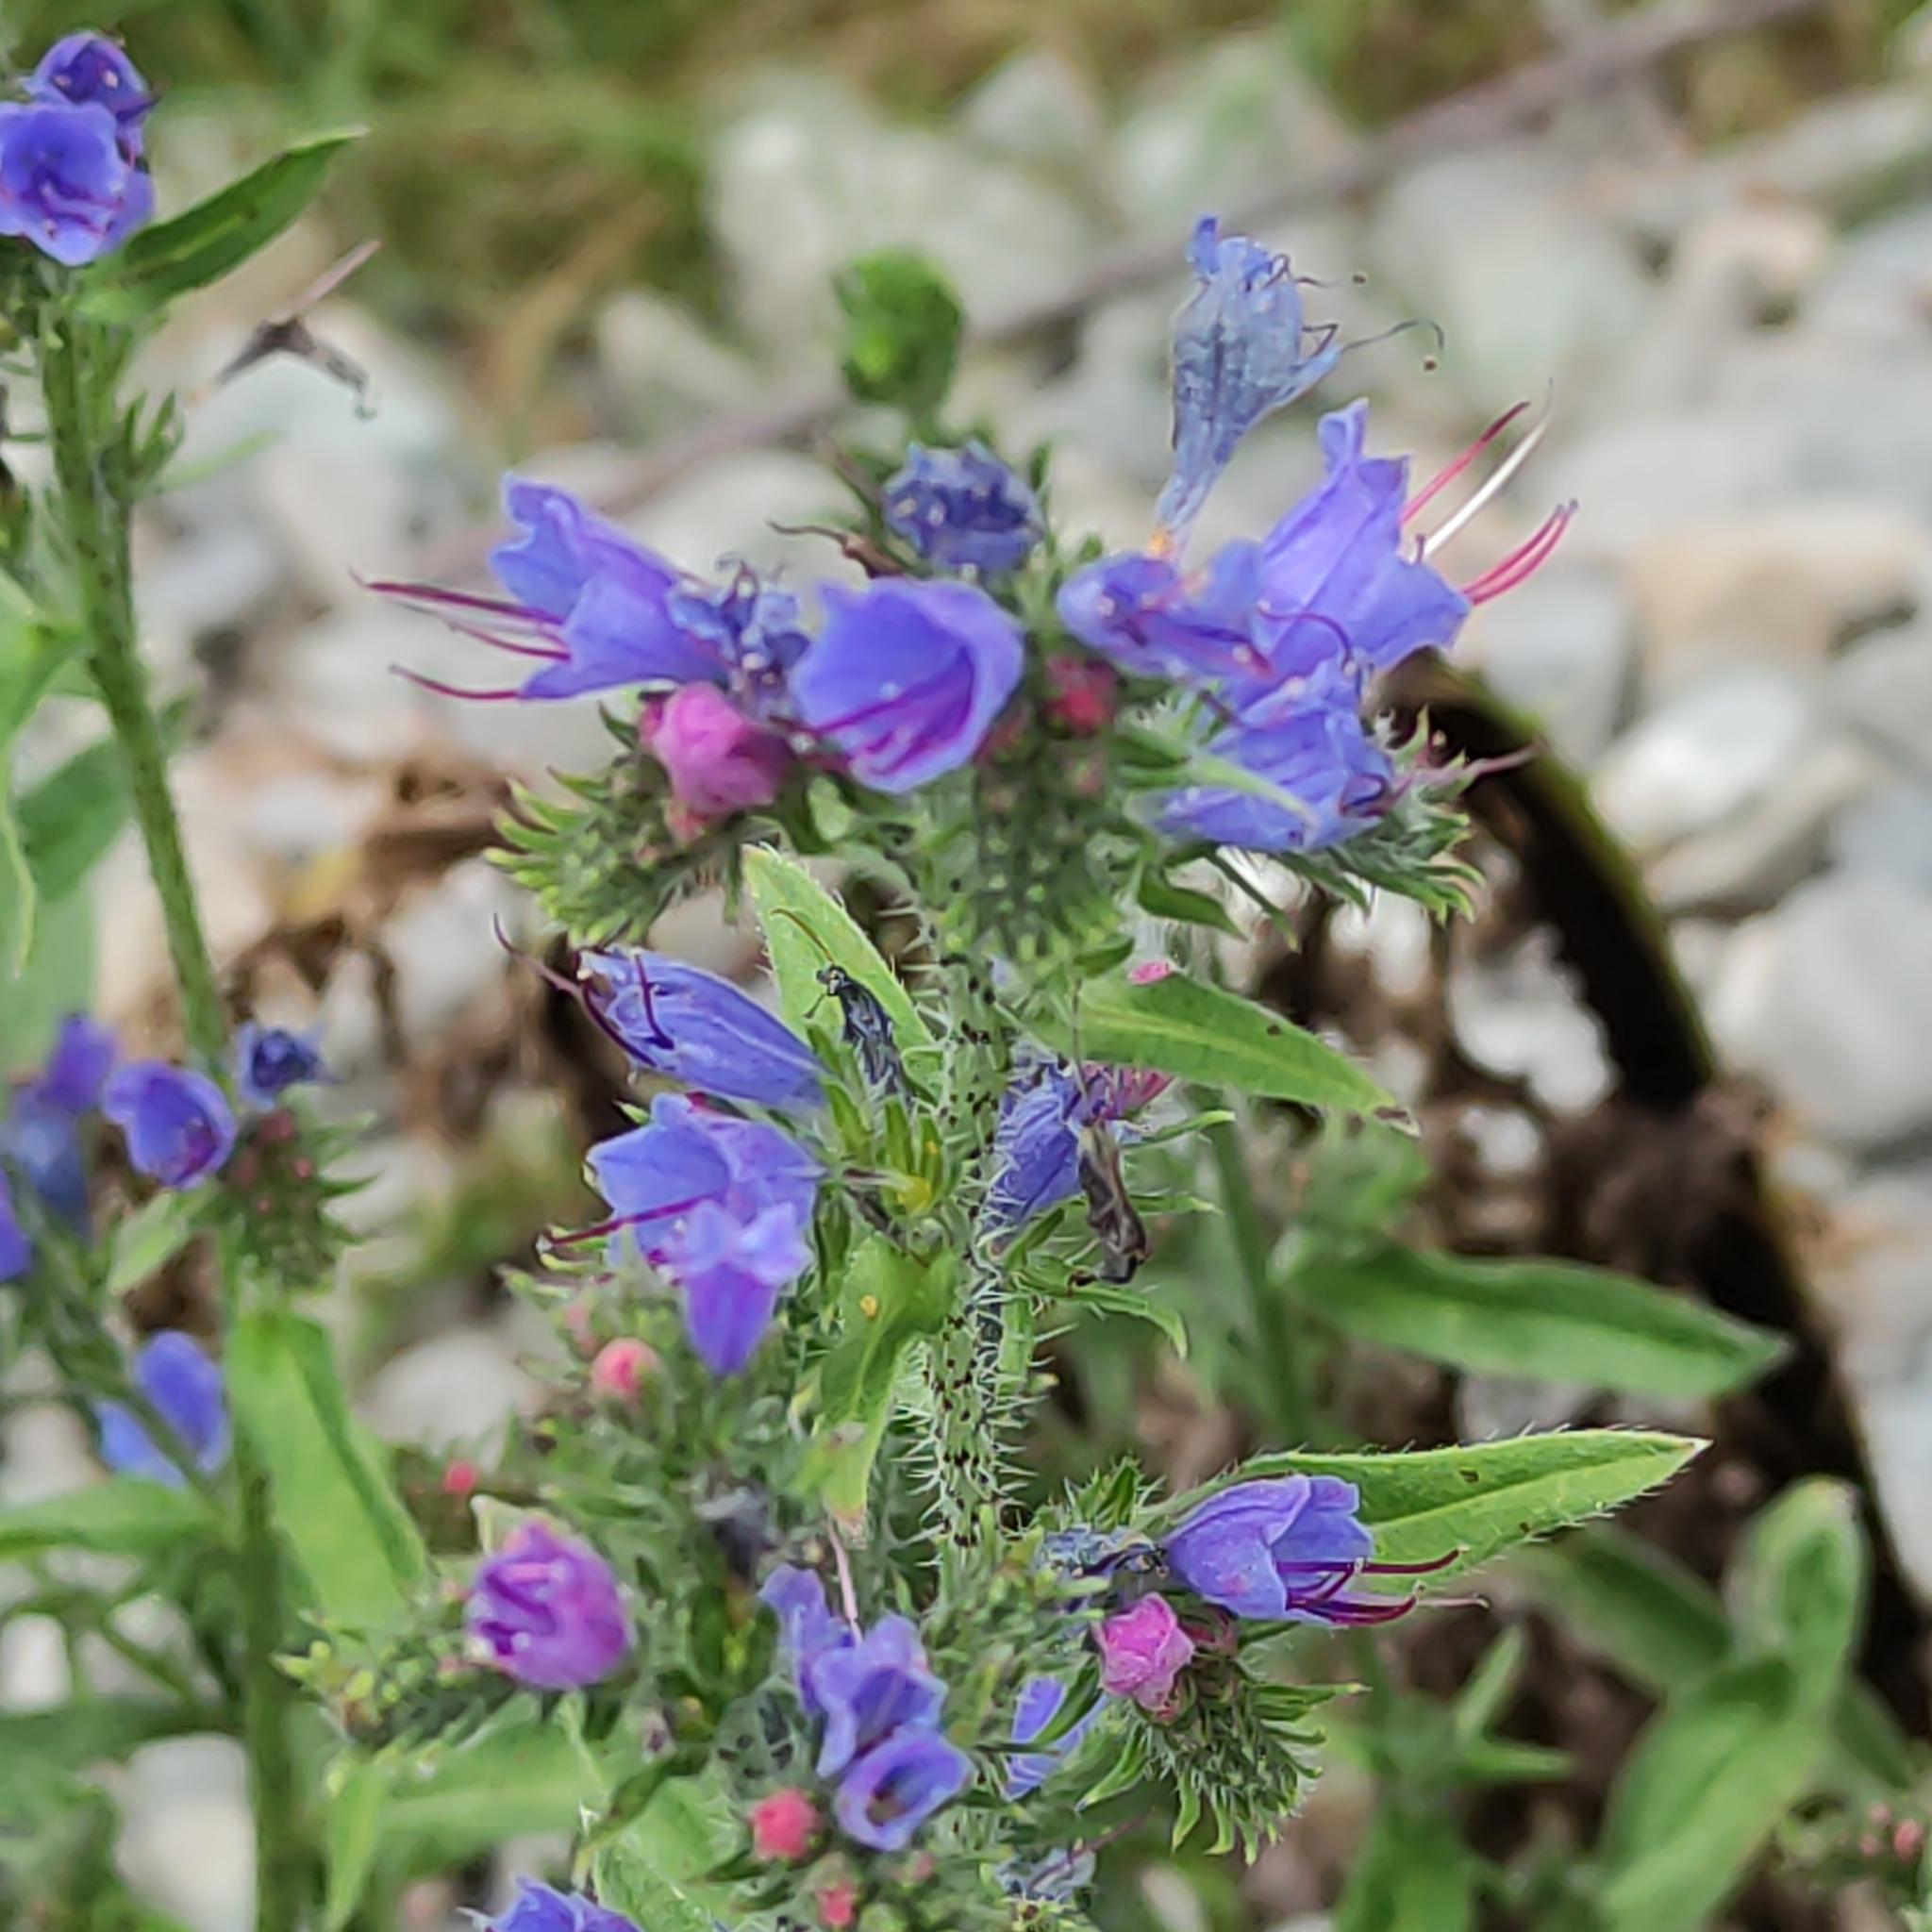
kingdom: Plantae
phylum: Tracheophyta
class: Magnoliopsida
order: Boraginales
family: Boraginaceae
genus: Echium
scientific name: Echium vulgare
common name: Common viper's bugloss
